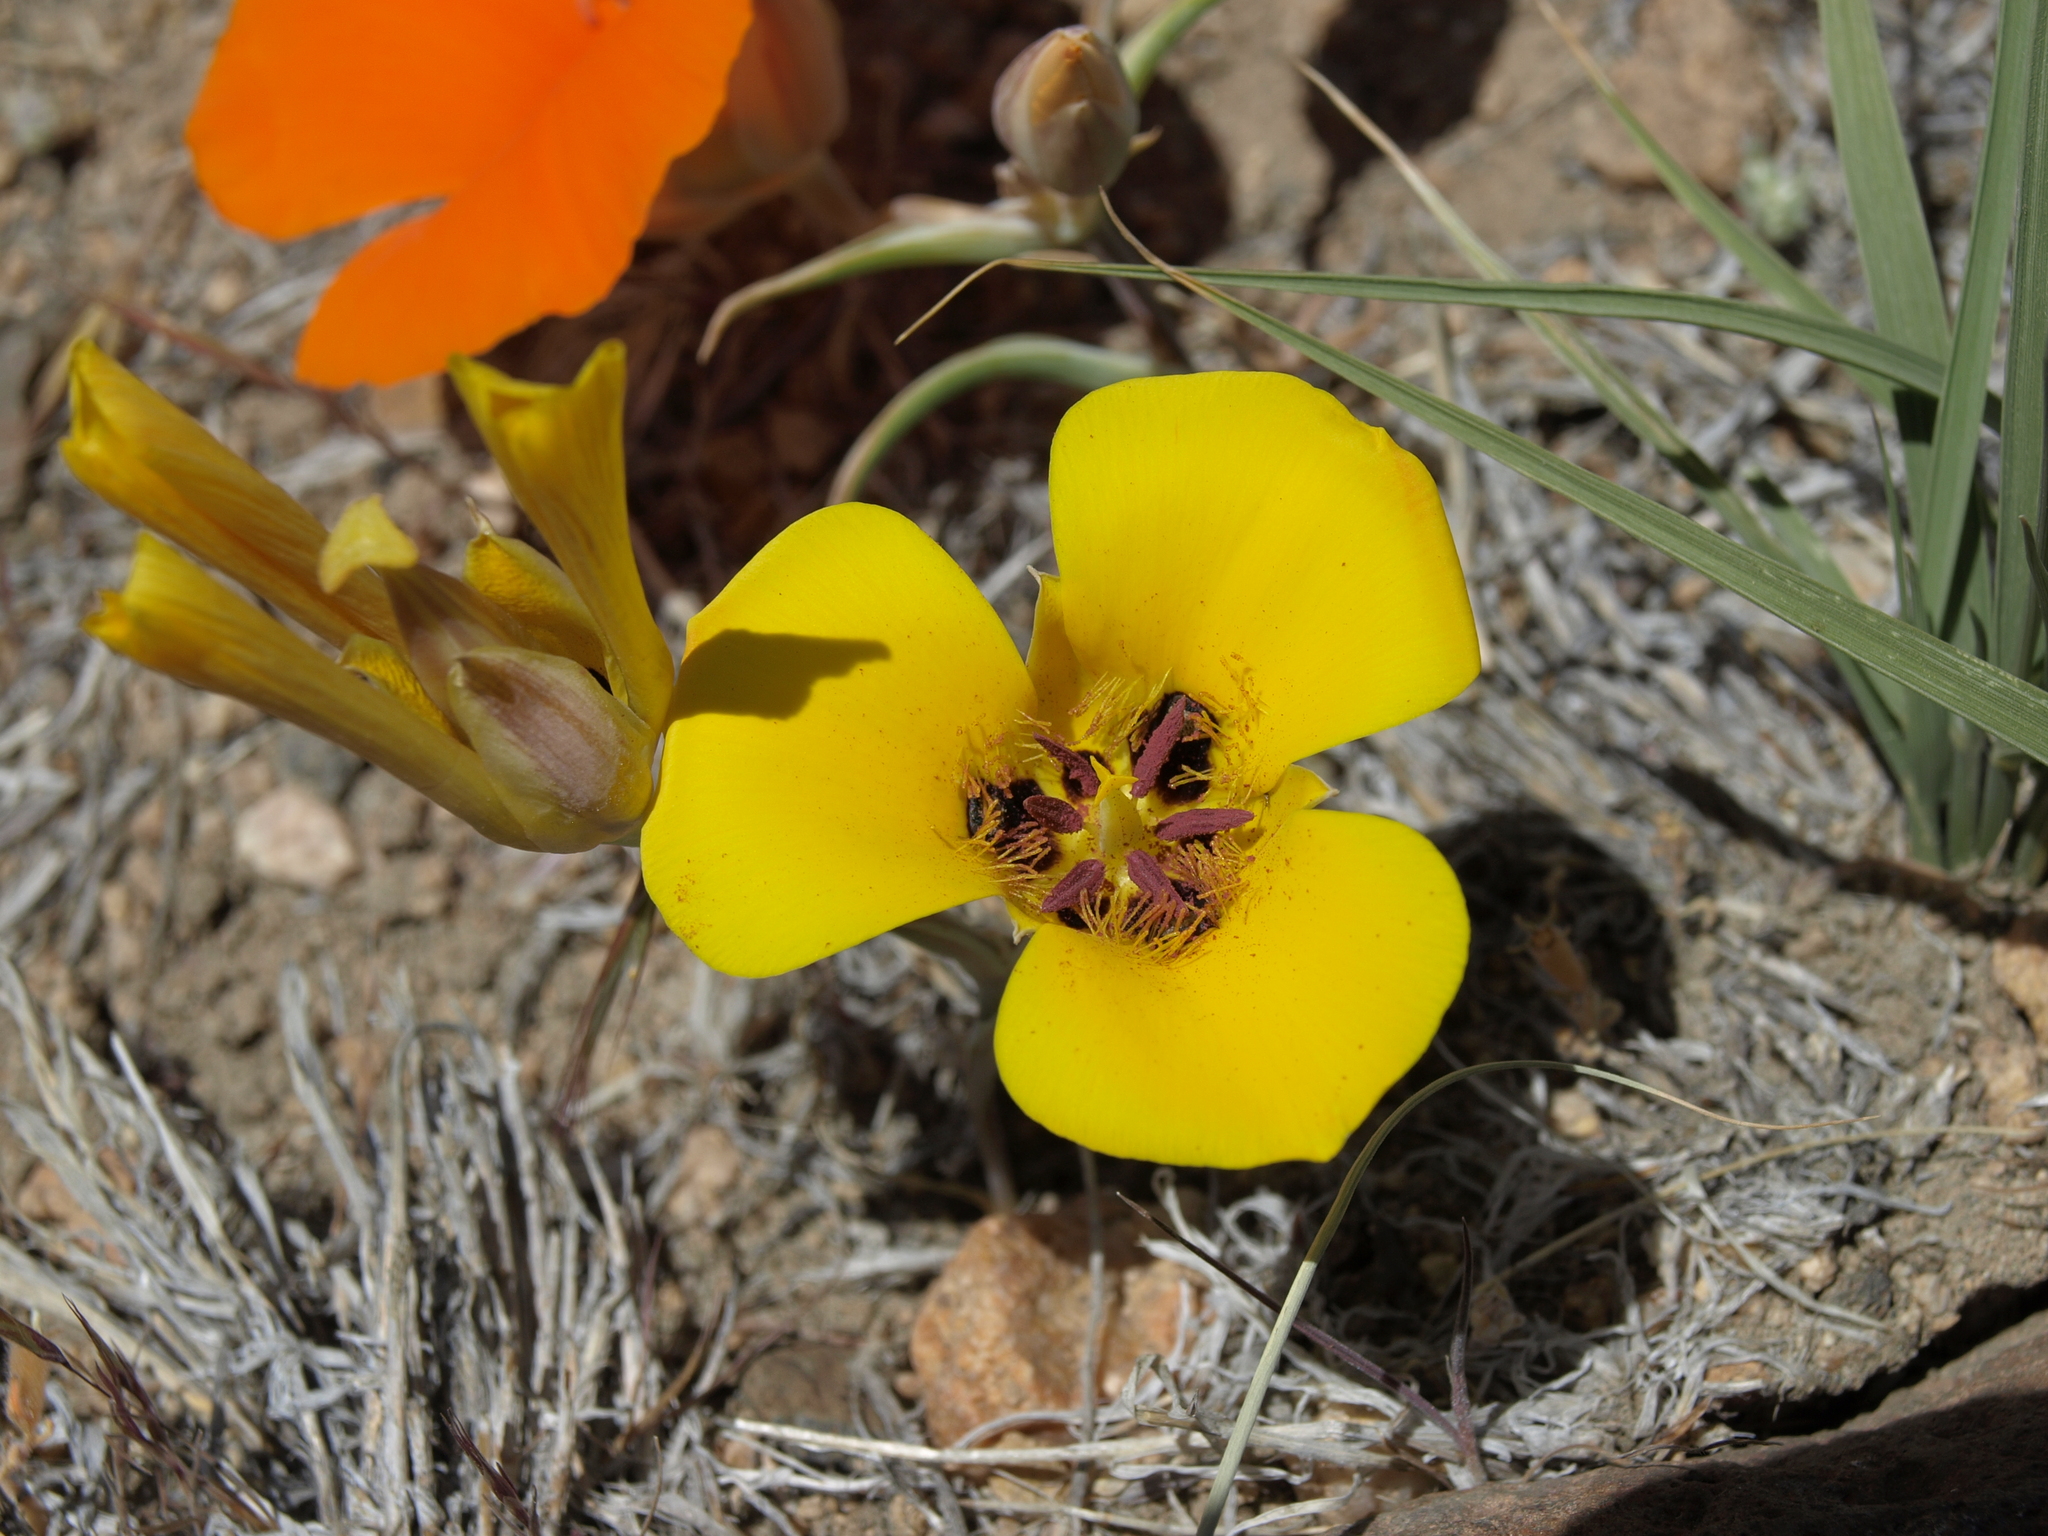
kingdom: Plantae
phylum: Tracheophyta
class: Liliopsida
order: Liliales
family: Liliaceae
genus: Calochortus
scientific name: Calochortus kennedyi
